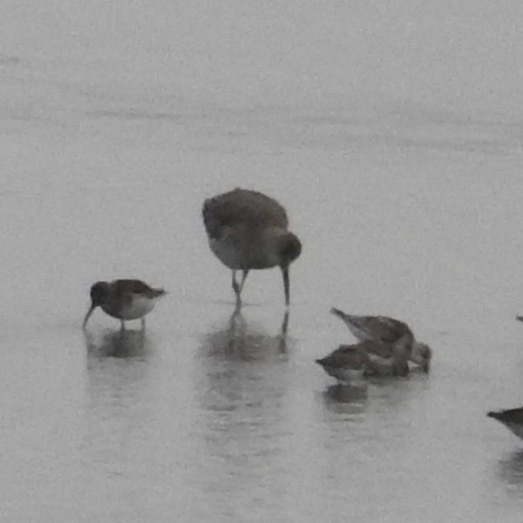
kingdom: Animalia
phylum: Chordata
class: Aves
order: Charadriiformes
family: Scolopacidae
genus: Tringa
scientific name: Tringa semipalmata
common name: Willet
